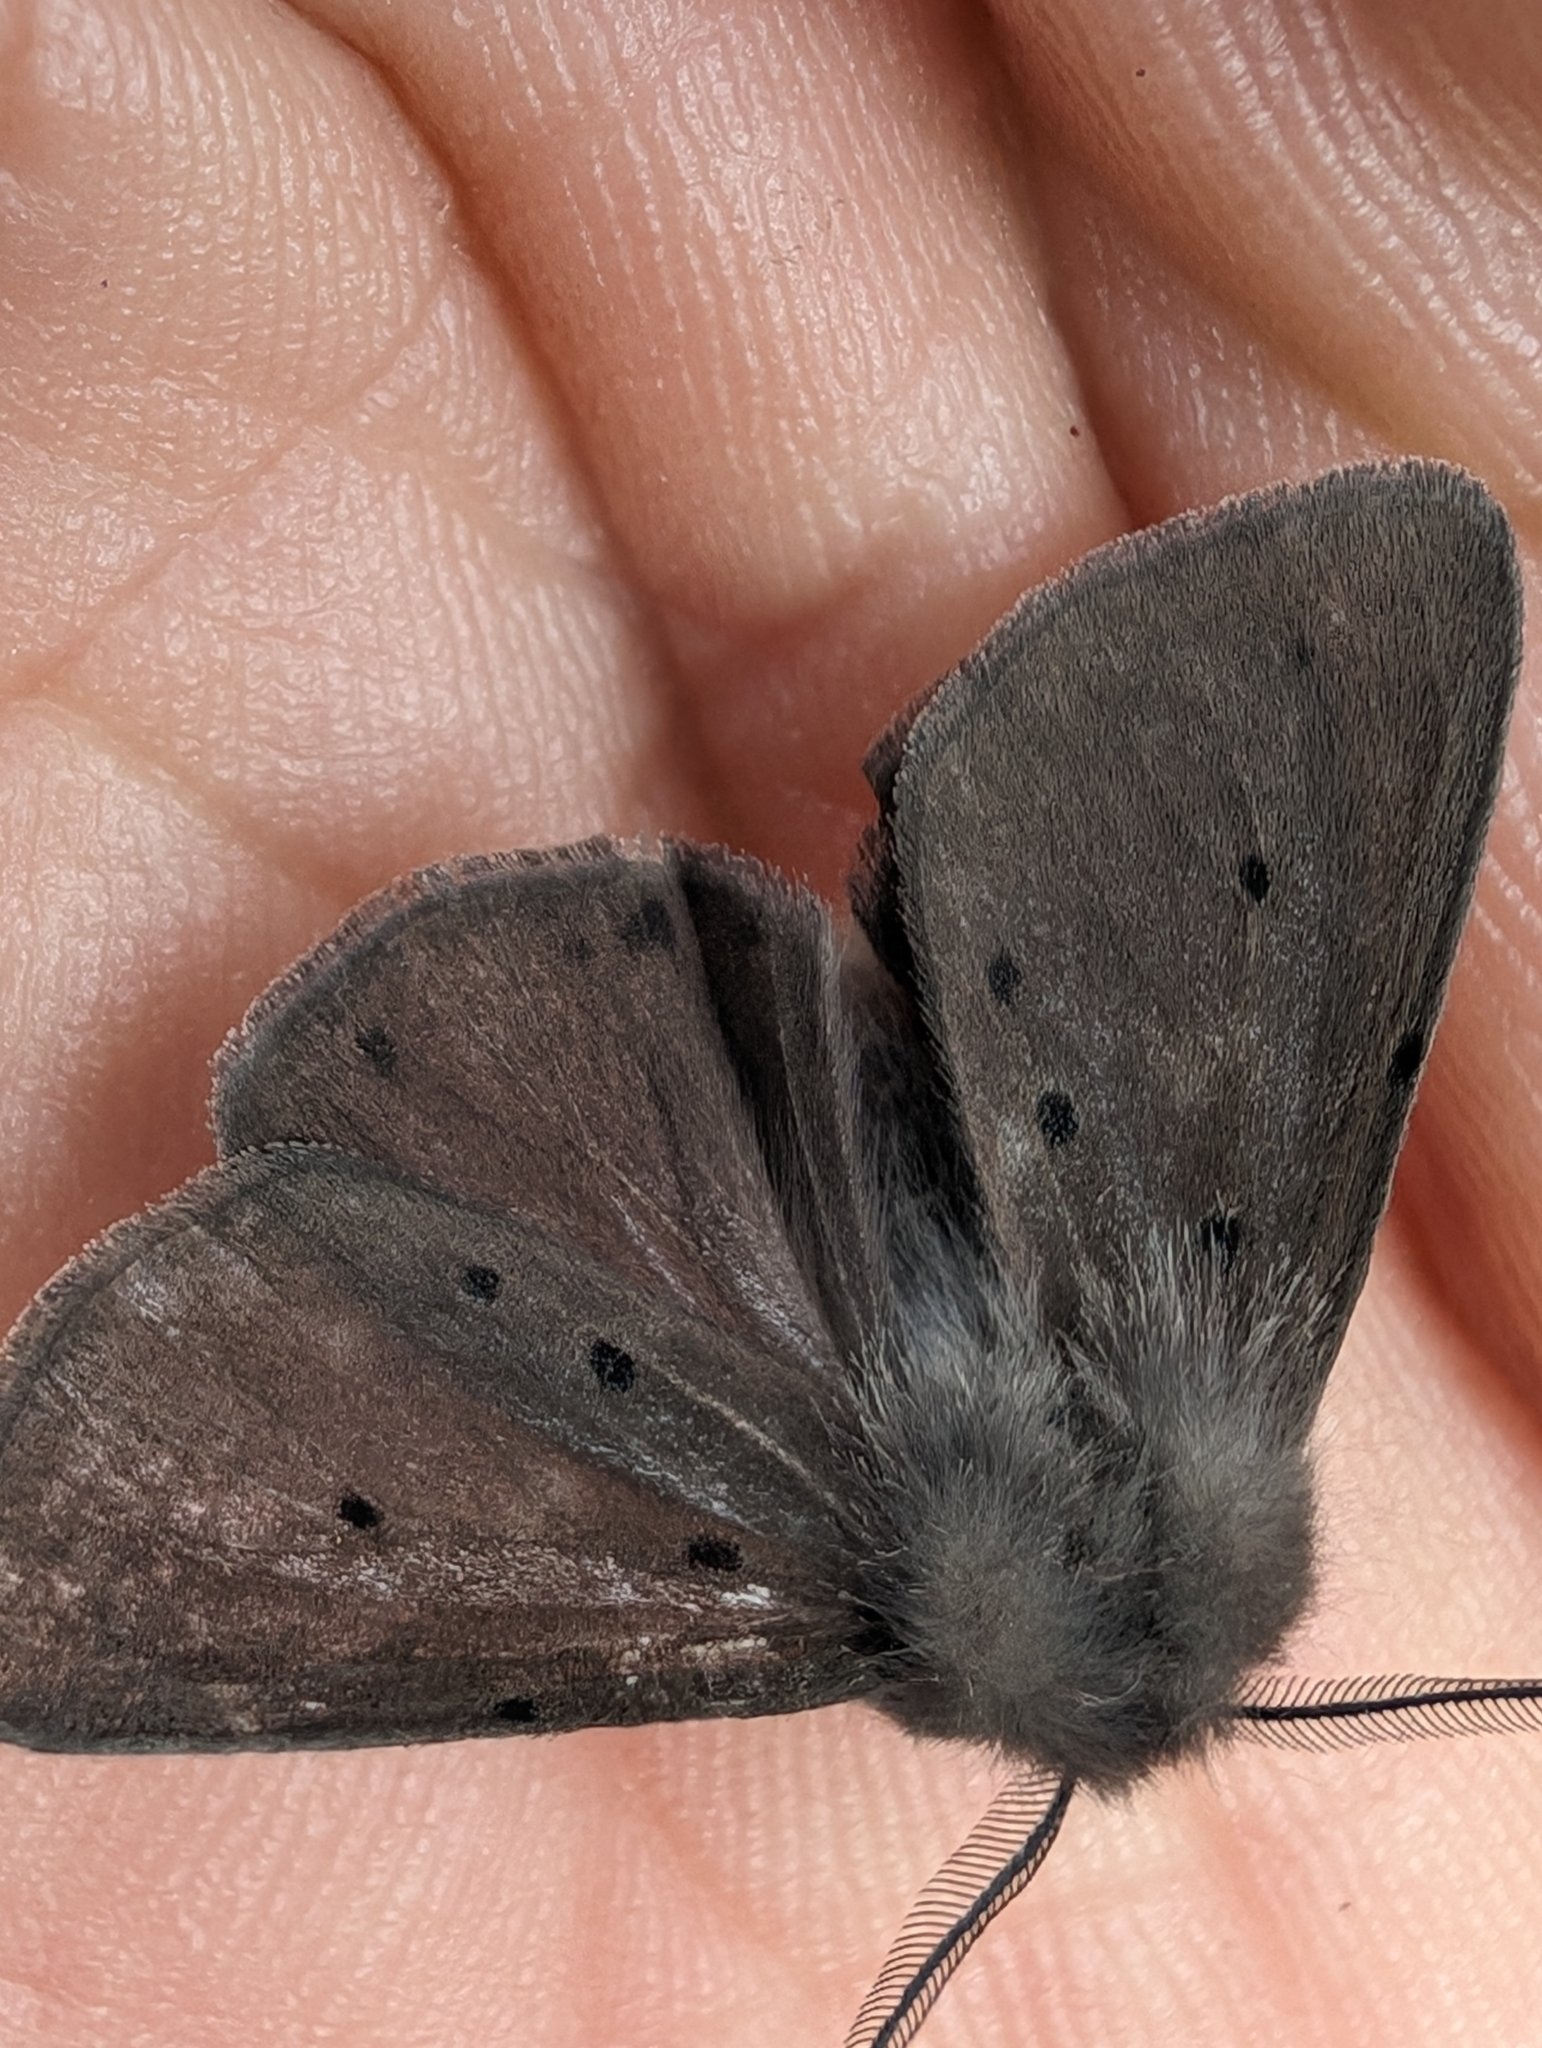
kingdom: Animalia
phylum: Arthropoda
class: Insecta
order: Lepidoptera
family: Erebidae
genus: Diaphora
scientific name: Diaphora mendica
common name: Muslin moth
